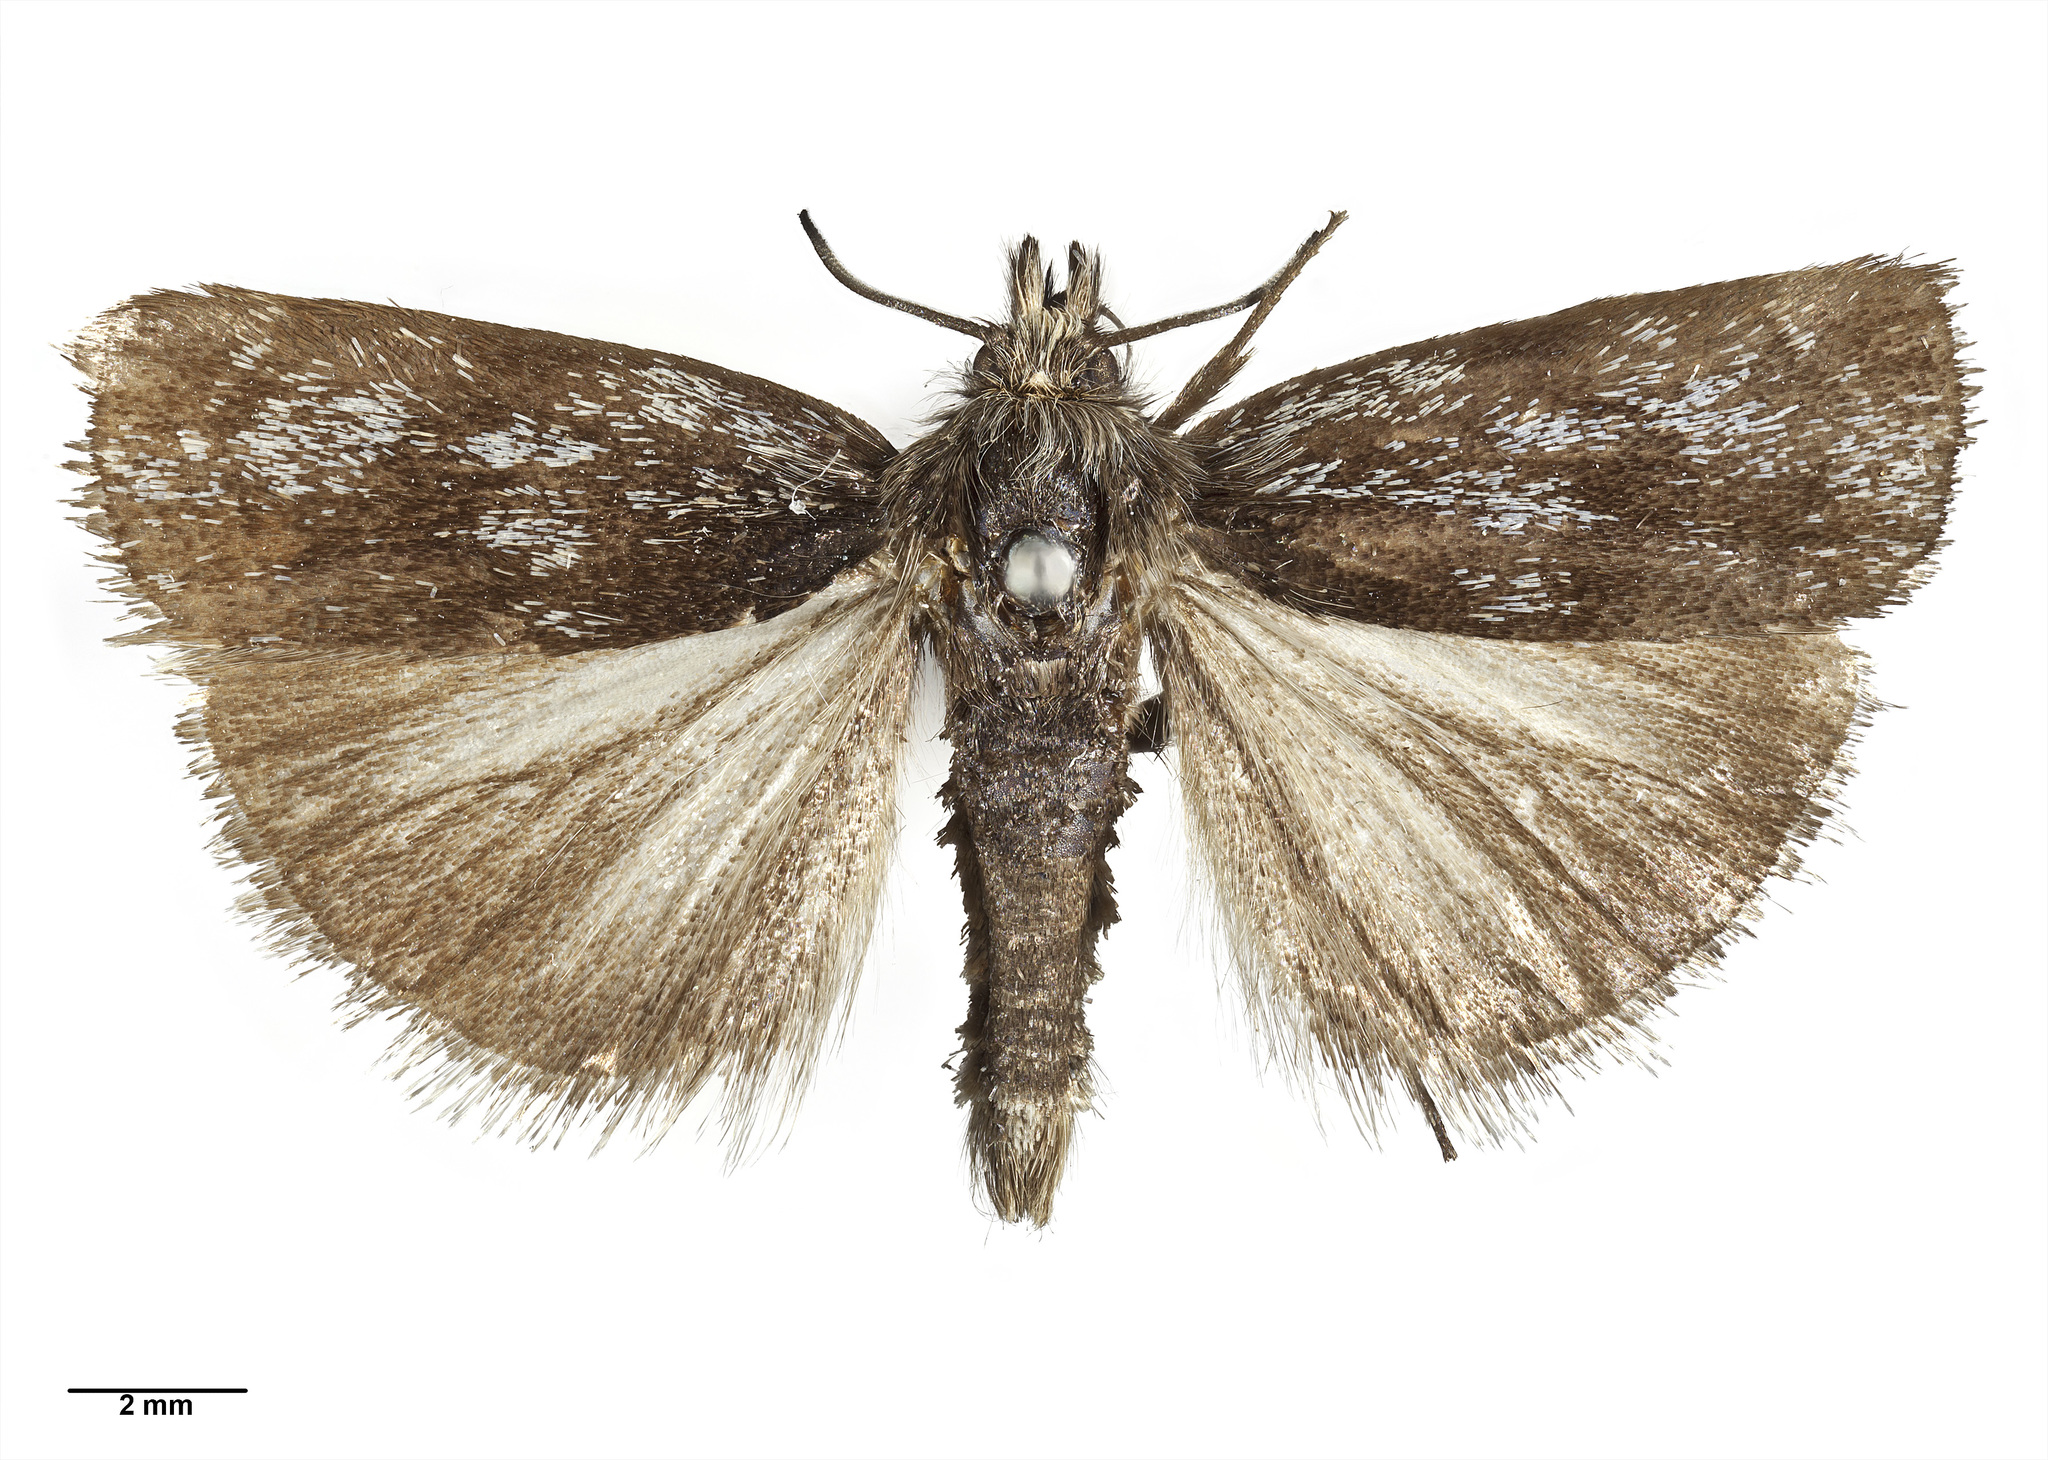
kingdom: Animalia
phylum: Arthropoda
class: Insecta
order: Lepidoptera
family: Crambidae
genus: Orocrambus
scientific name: Orocrambus clarkei
